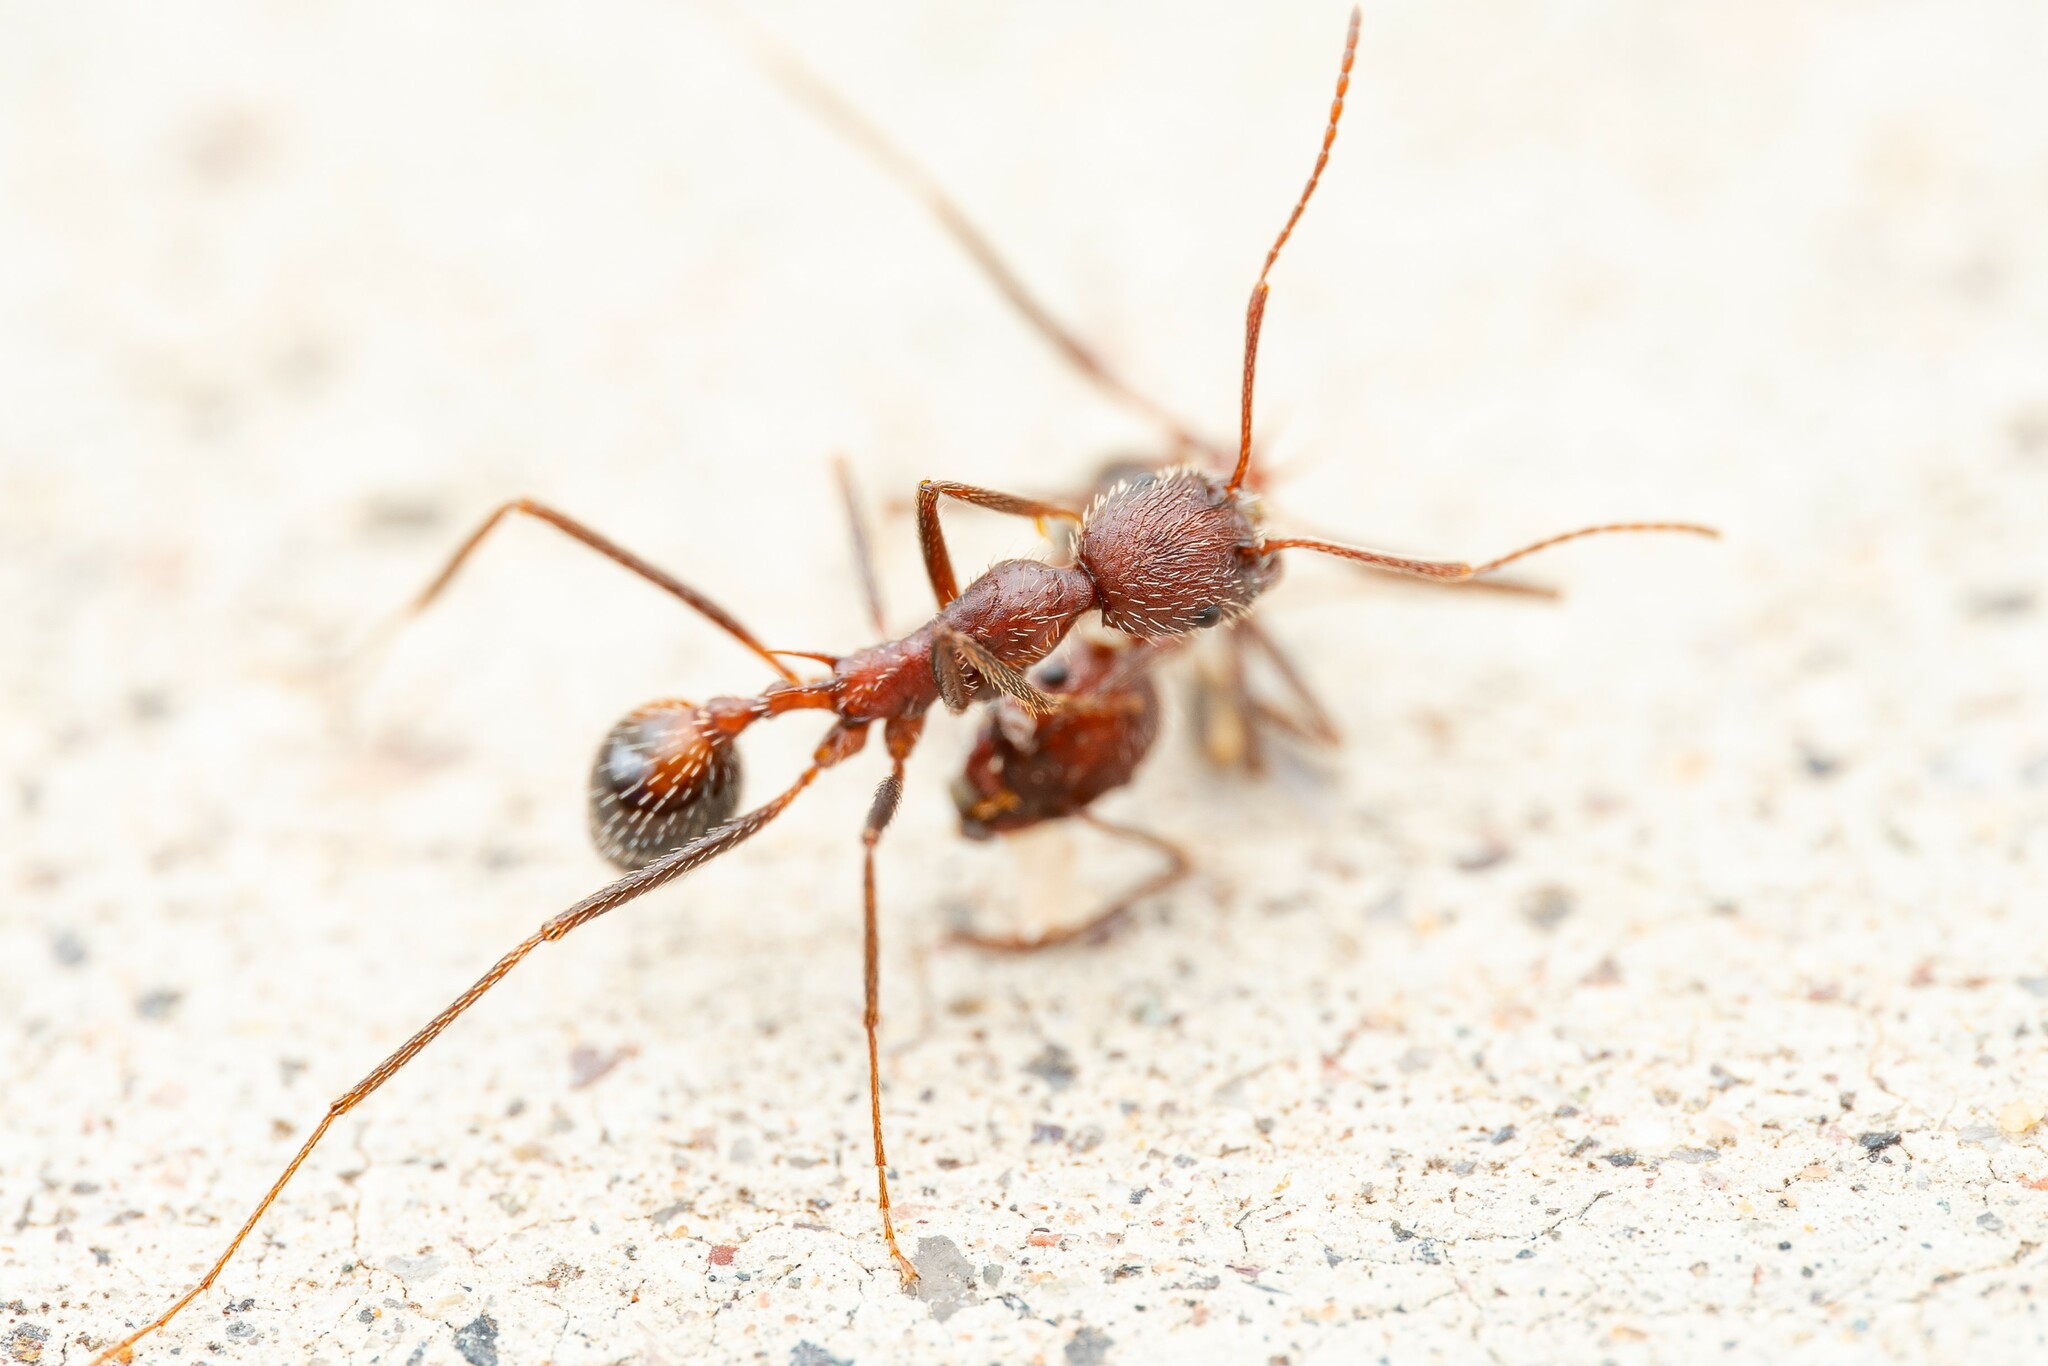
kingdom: Animalia
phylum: Arthropoda
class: Insecta
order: Hymenoptera
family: Formicidae
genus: Novomessor
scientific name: Novomessor albisetosa
